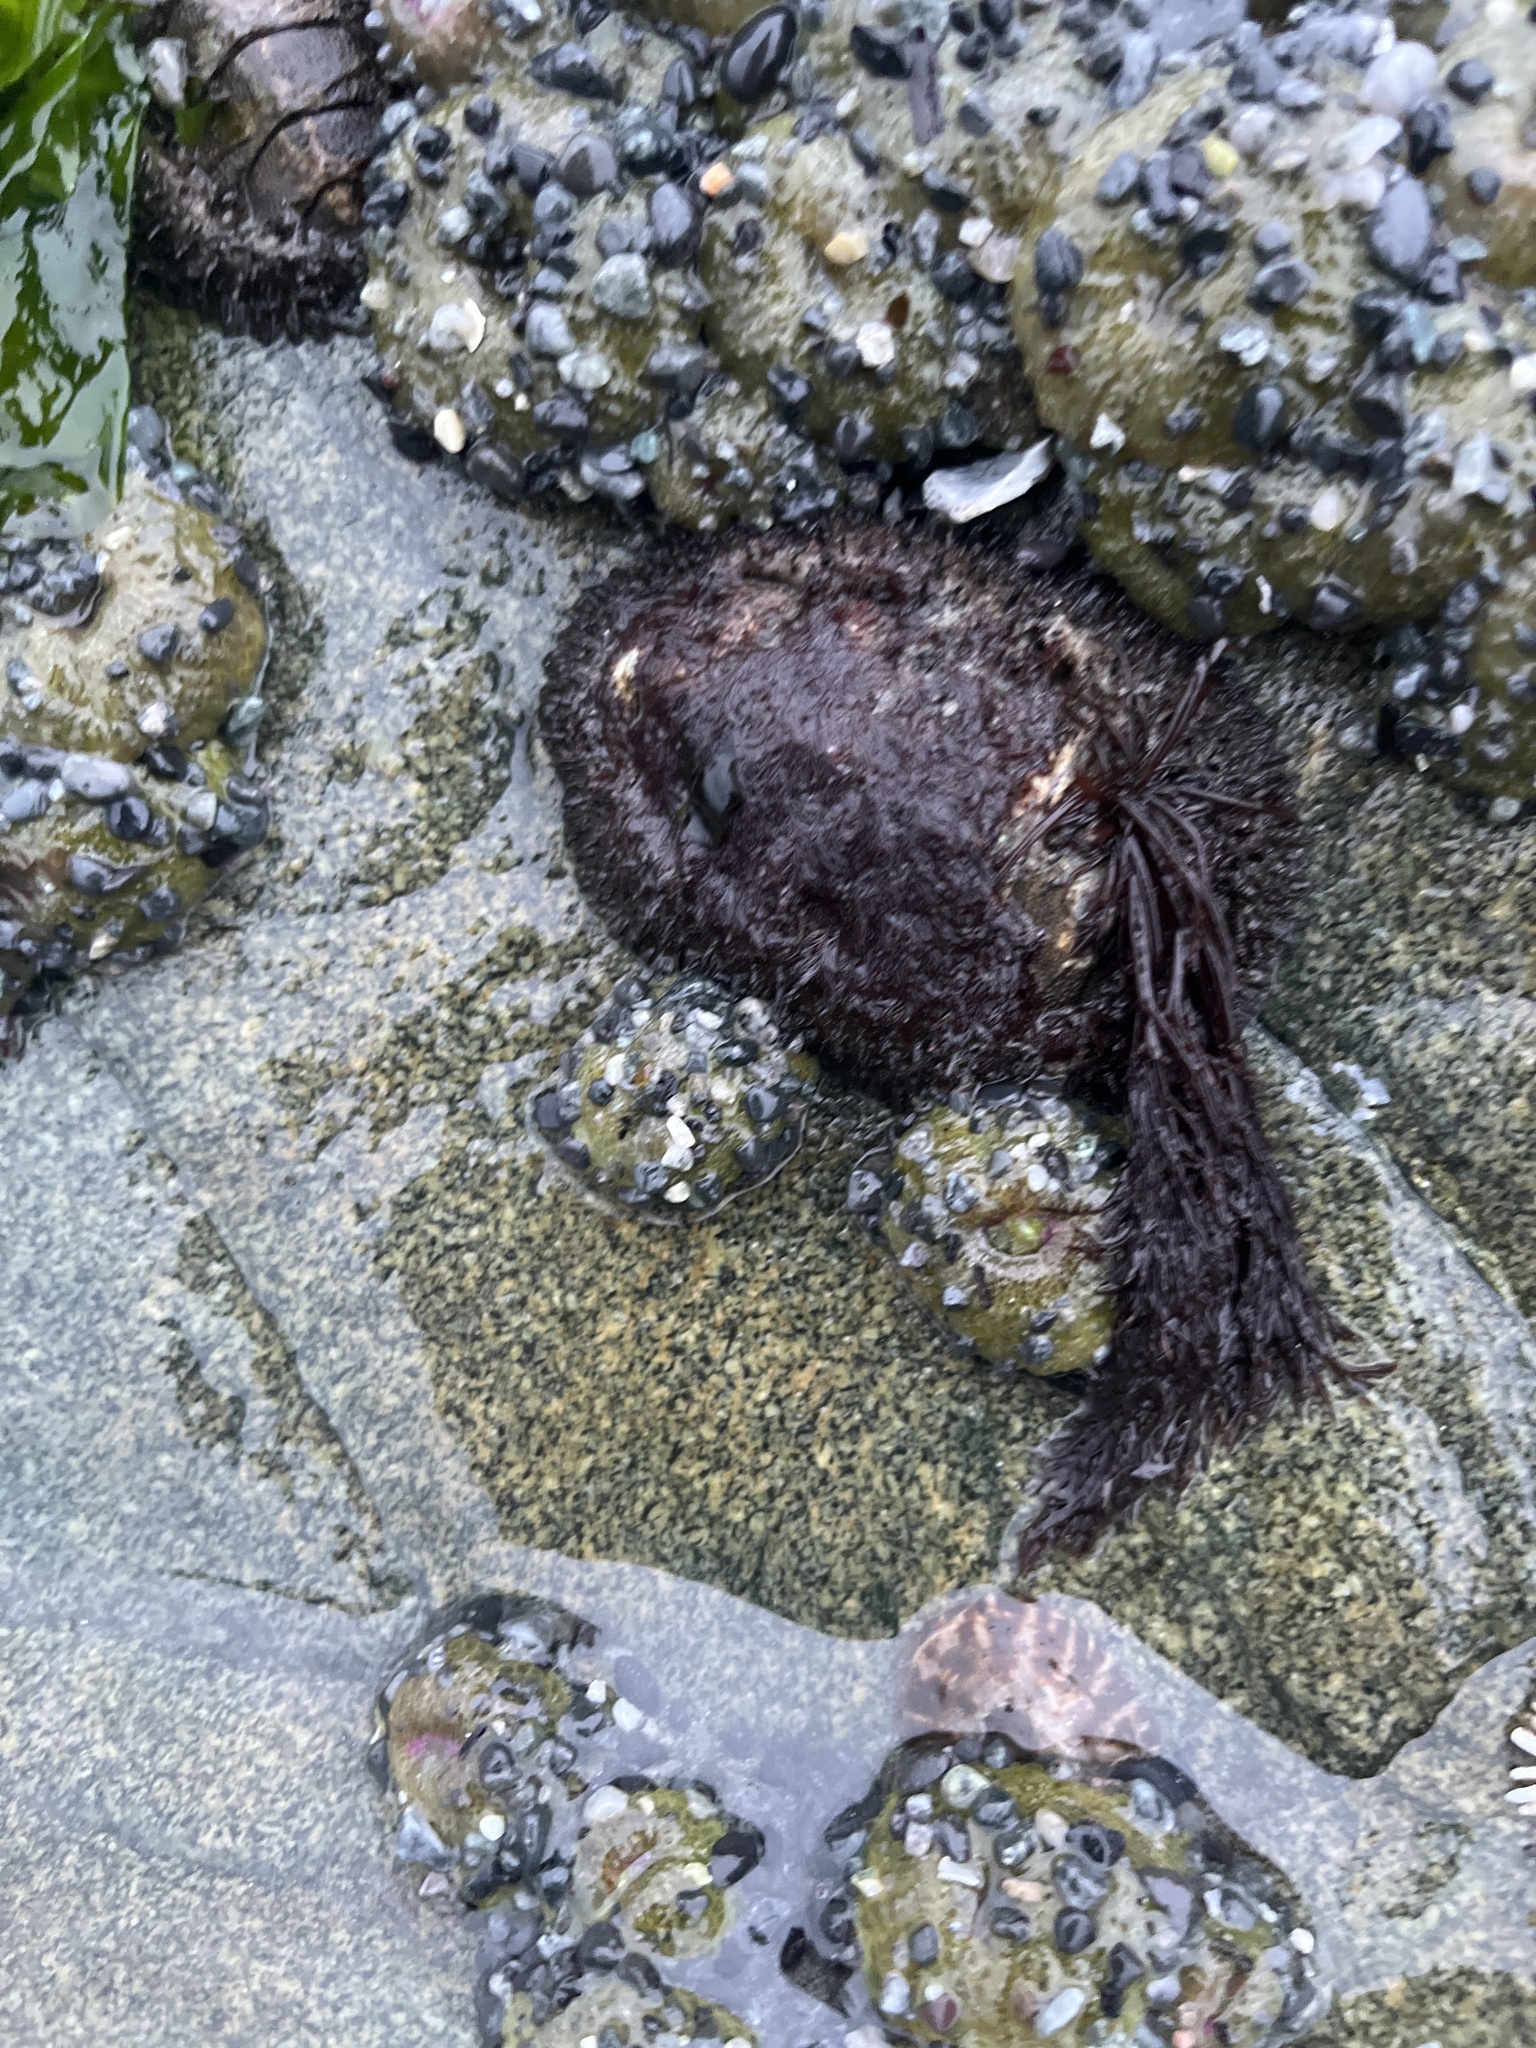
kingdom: Animalia
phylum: Mollusca
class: Polyplacophora
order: Chitonida
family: Mopaliidae
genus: Mopalia
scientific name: Mopalia muscosa
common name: Mossy chiton
